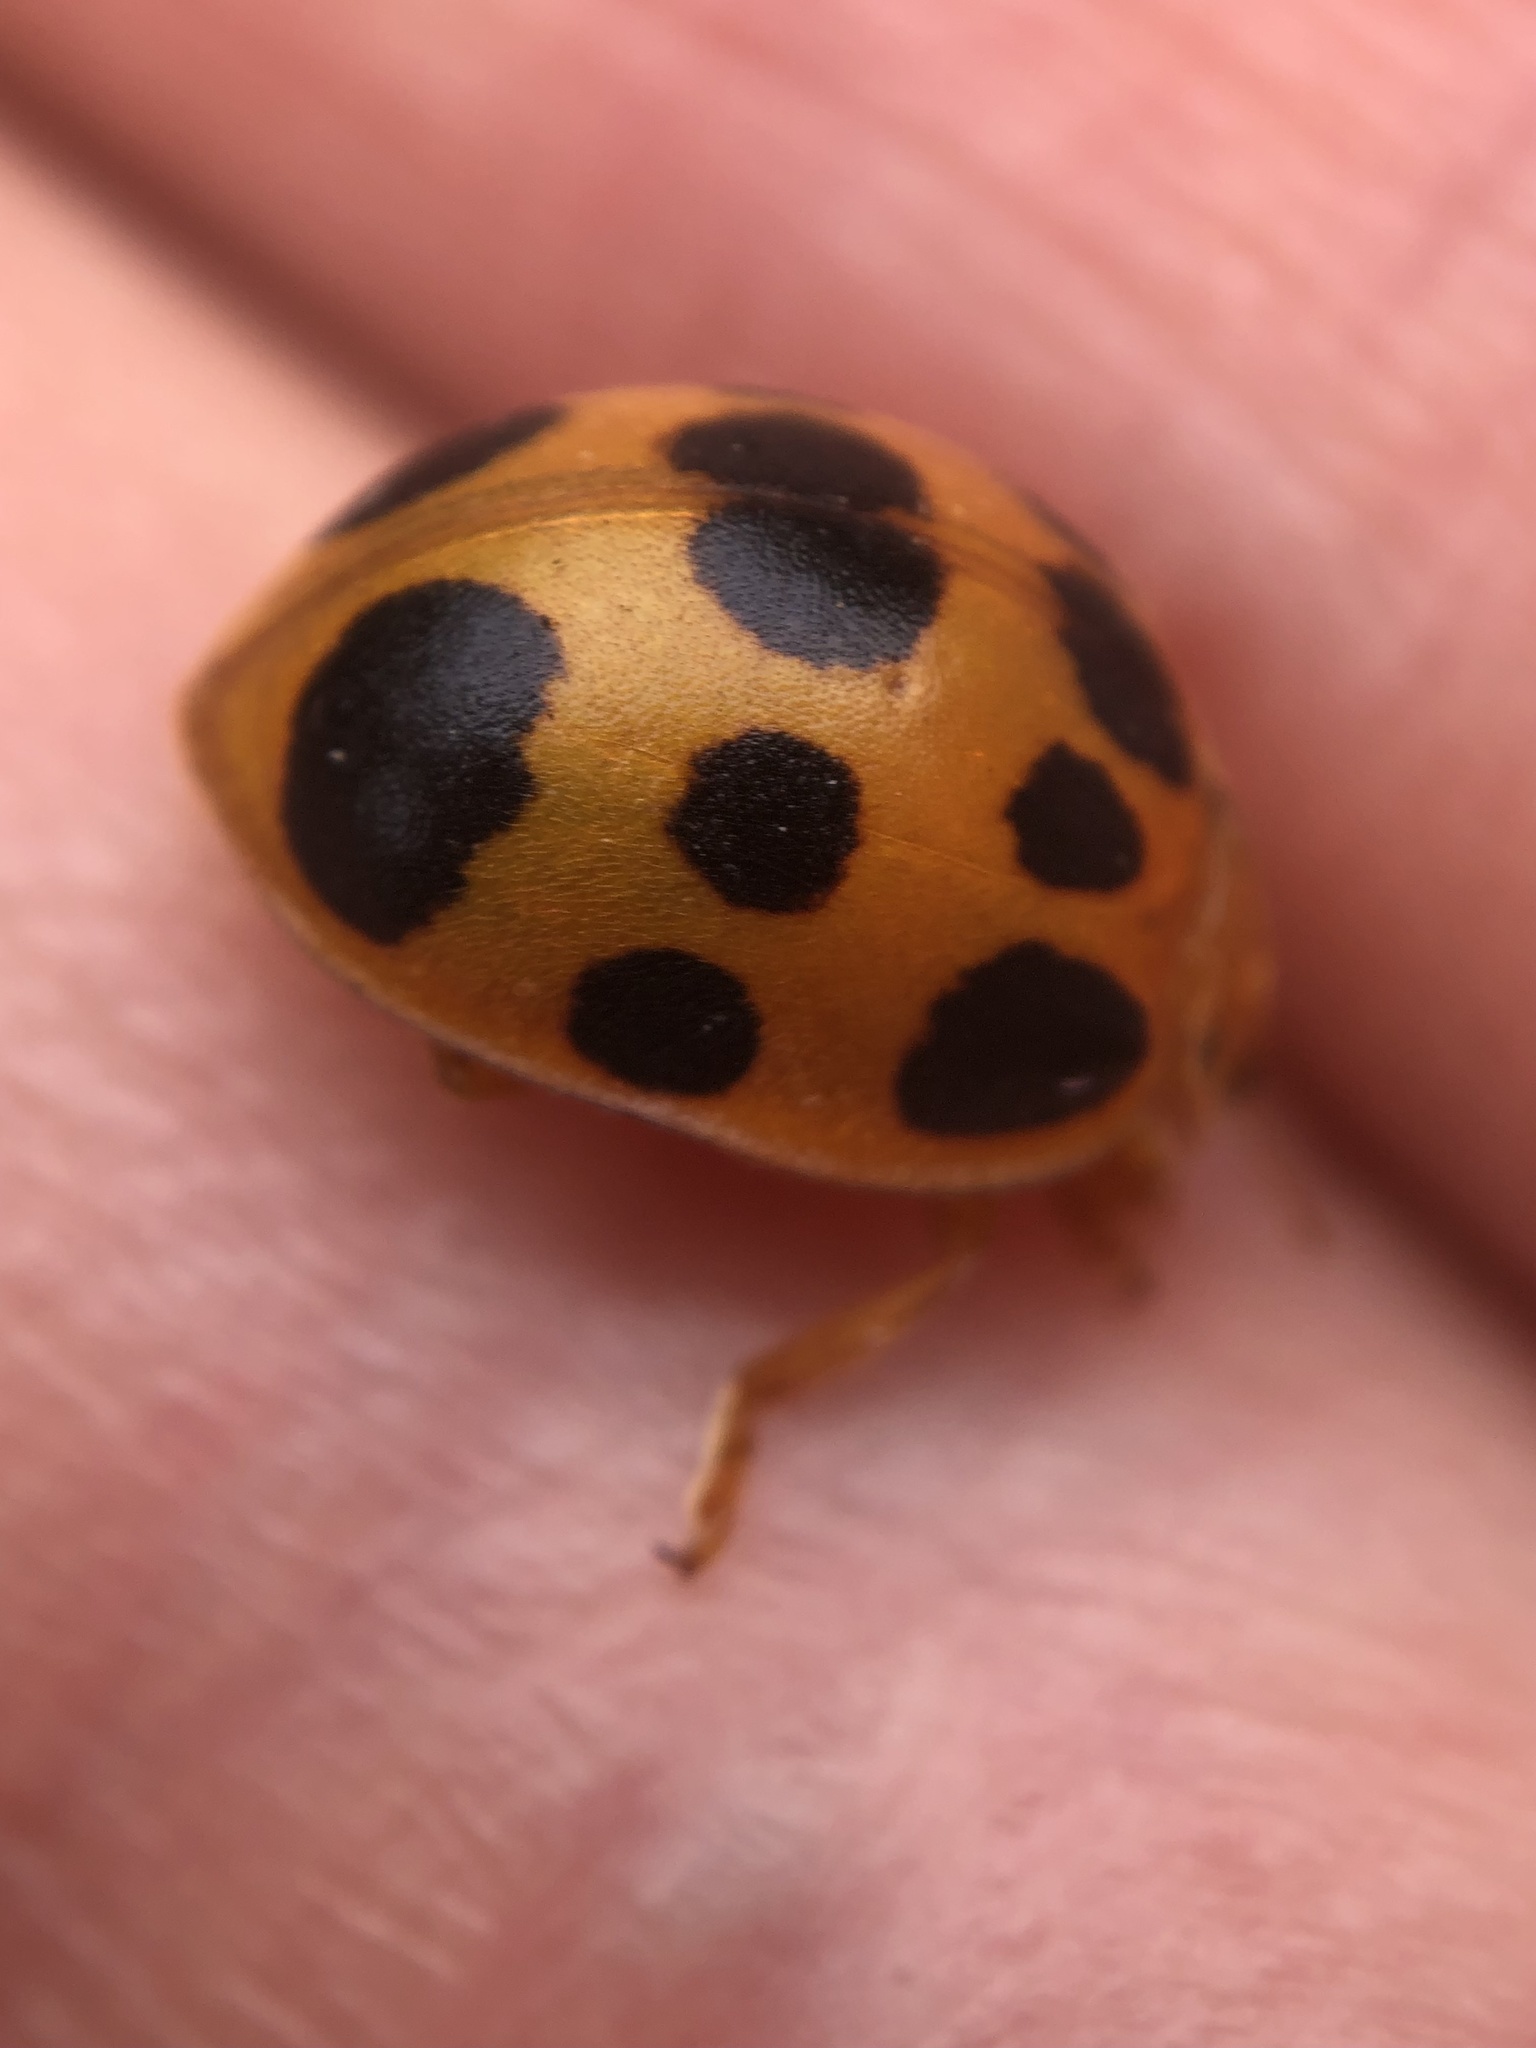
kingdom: Animalia
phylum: Arthropoda
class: Insecta
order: Coleoptera
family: Coccinellidae
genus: Epilachna
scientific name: Epilachna borealis
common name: Squash beetle
